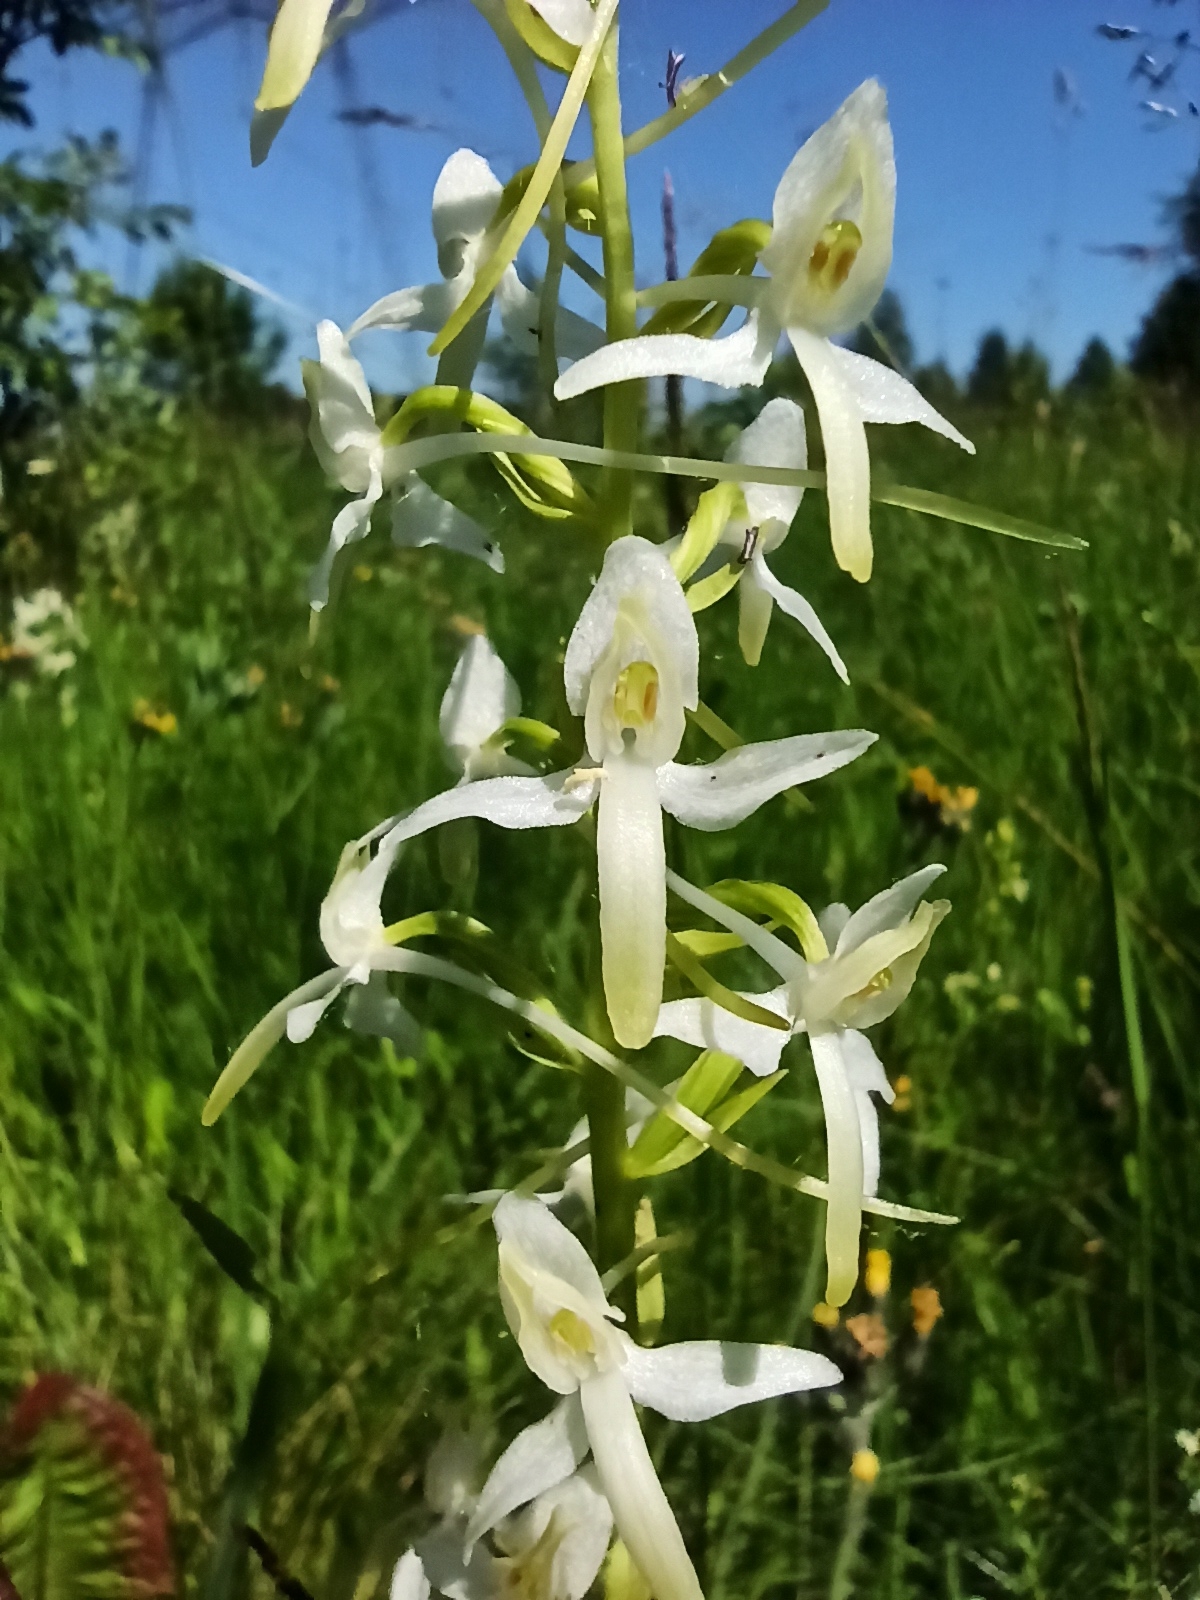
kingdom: Plantae
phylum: Tracheophyta
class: Liliopsida
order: Asparagales
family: Orchidaceae
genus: Platanthera
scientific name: Platanthera bifolia
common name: Lesser butterfly-orchid
